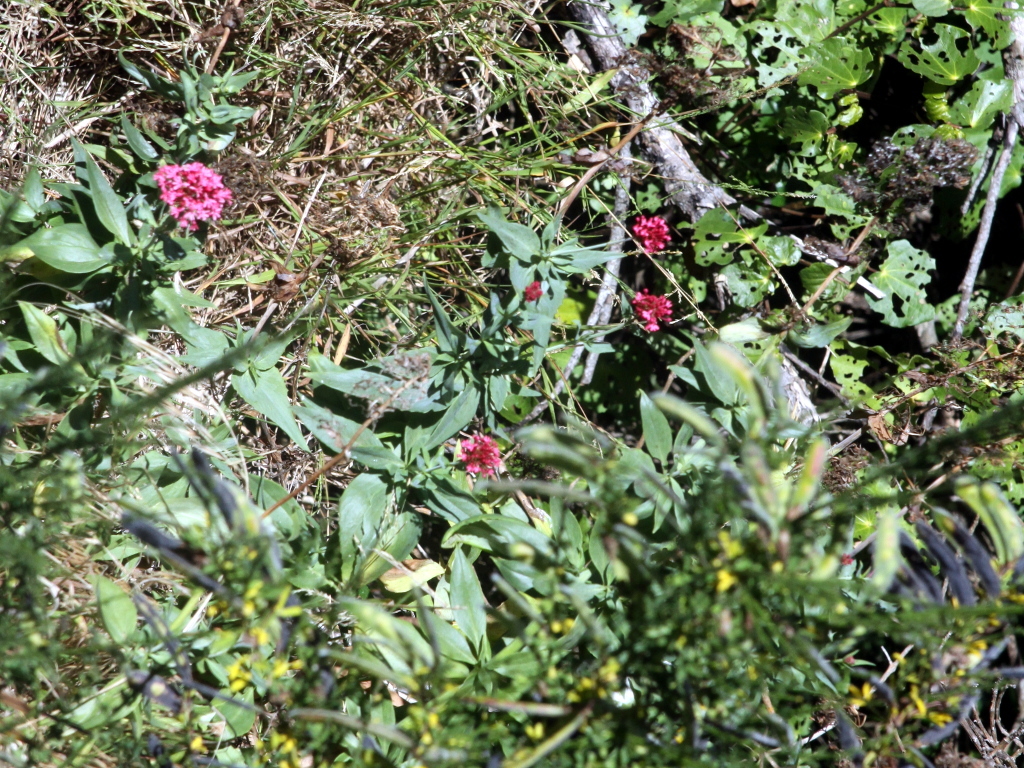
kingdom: Plantae
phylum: Tracheophyta
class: Magnoliopsida
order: Dipsacales
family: Caprifoliaceae
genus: Centranthus
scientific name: Centranthus ruber
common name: Red valerian
